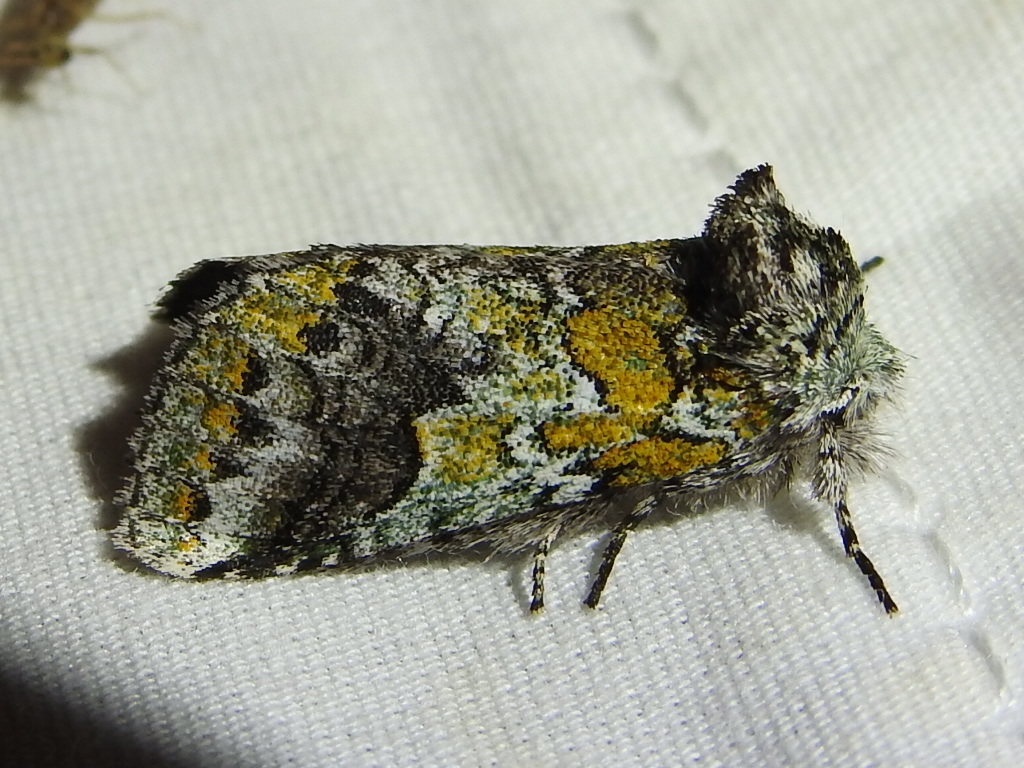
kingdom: Animalia
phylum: Arthropoda
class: Insecta
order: Lepidoptera
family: Notodontidae
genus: Litodonta
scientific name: Litodonta hydromeli
